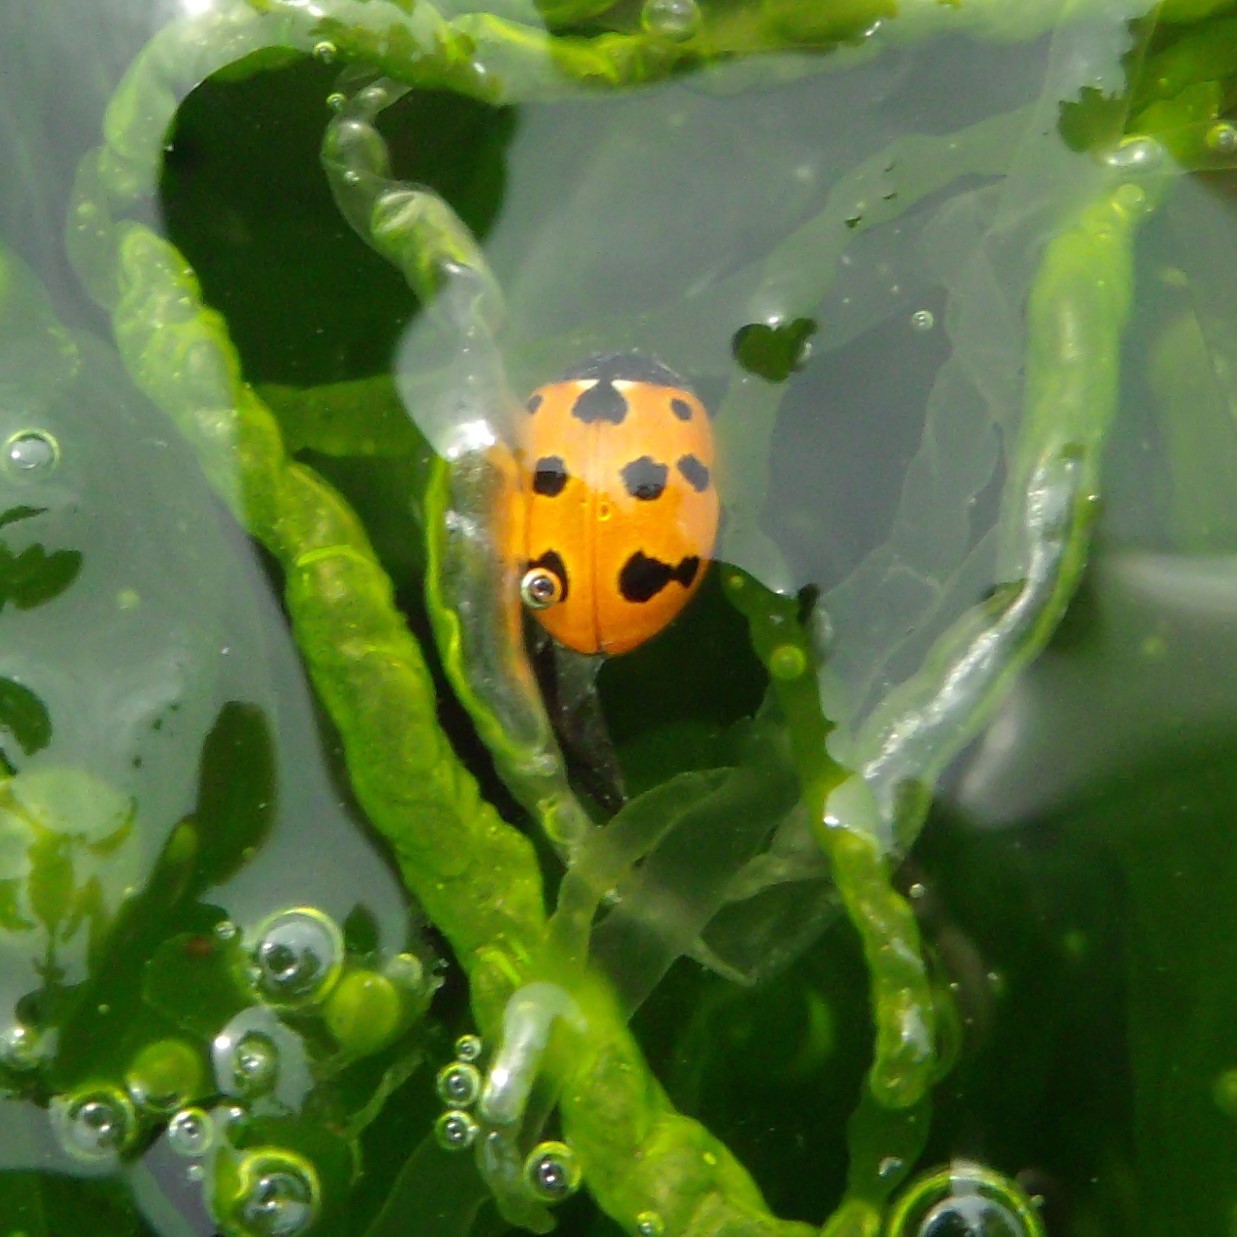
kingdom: Animalia
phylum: Arthropoda
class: Insecta
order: Coleoptera
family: Coccinellidae
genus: Coccinella
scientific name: Coccinella undecimpunctata
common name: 11-spot ladybird
